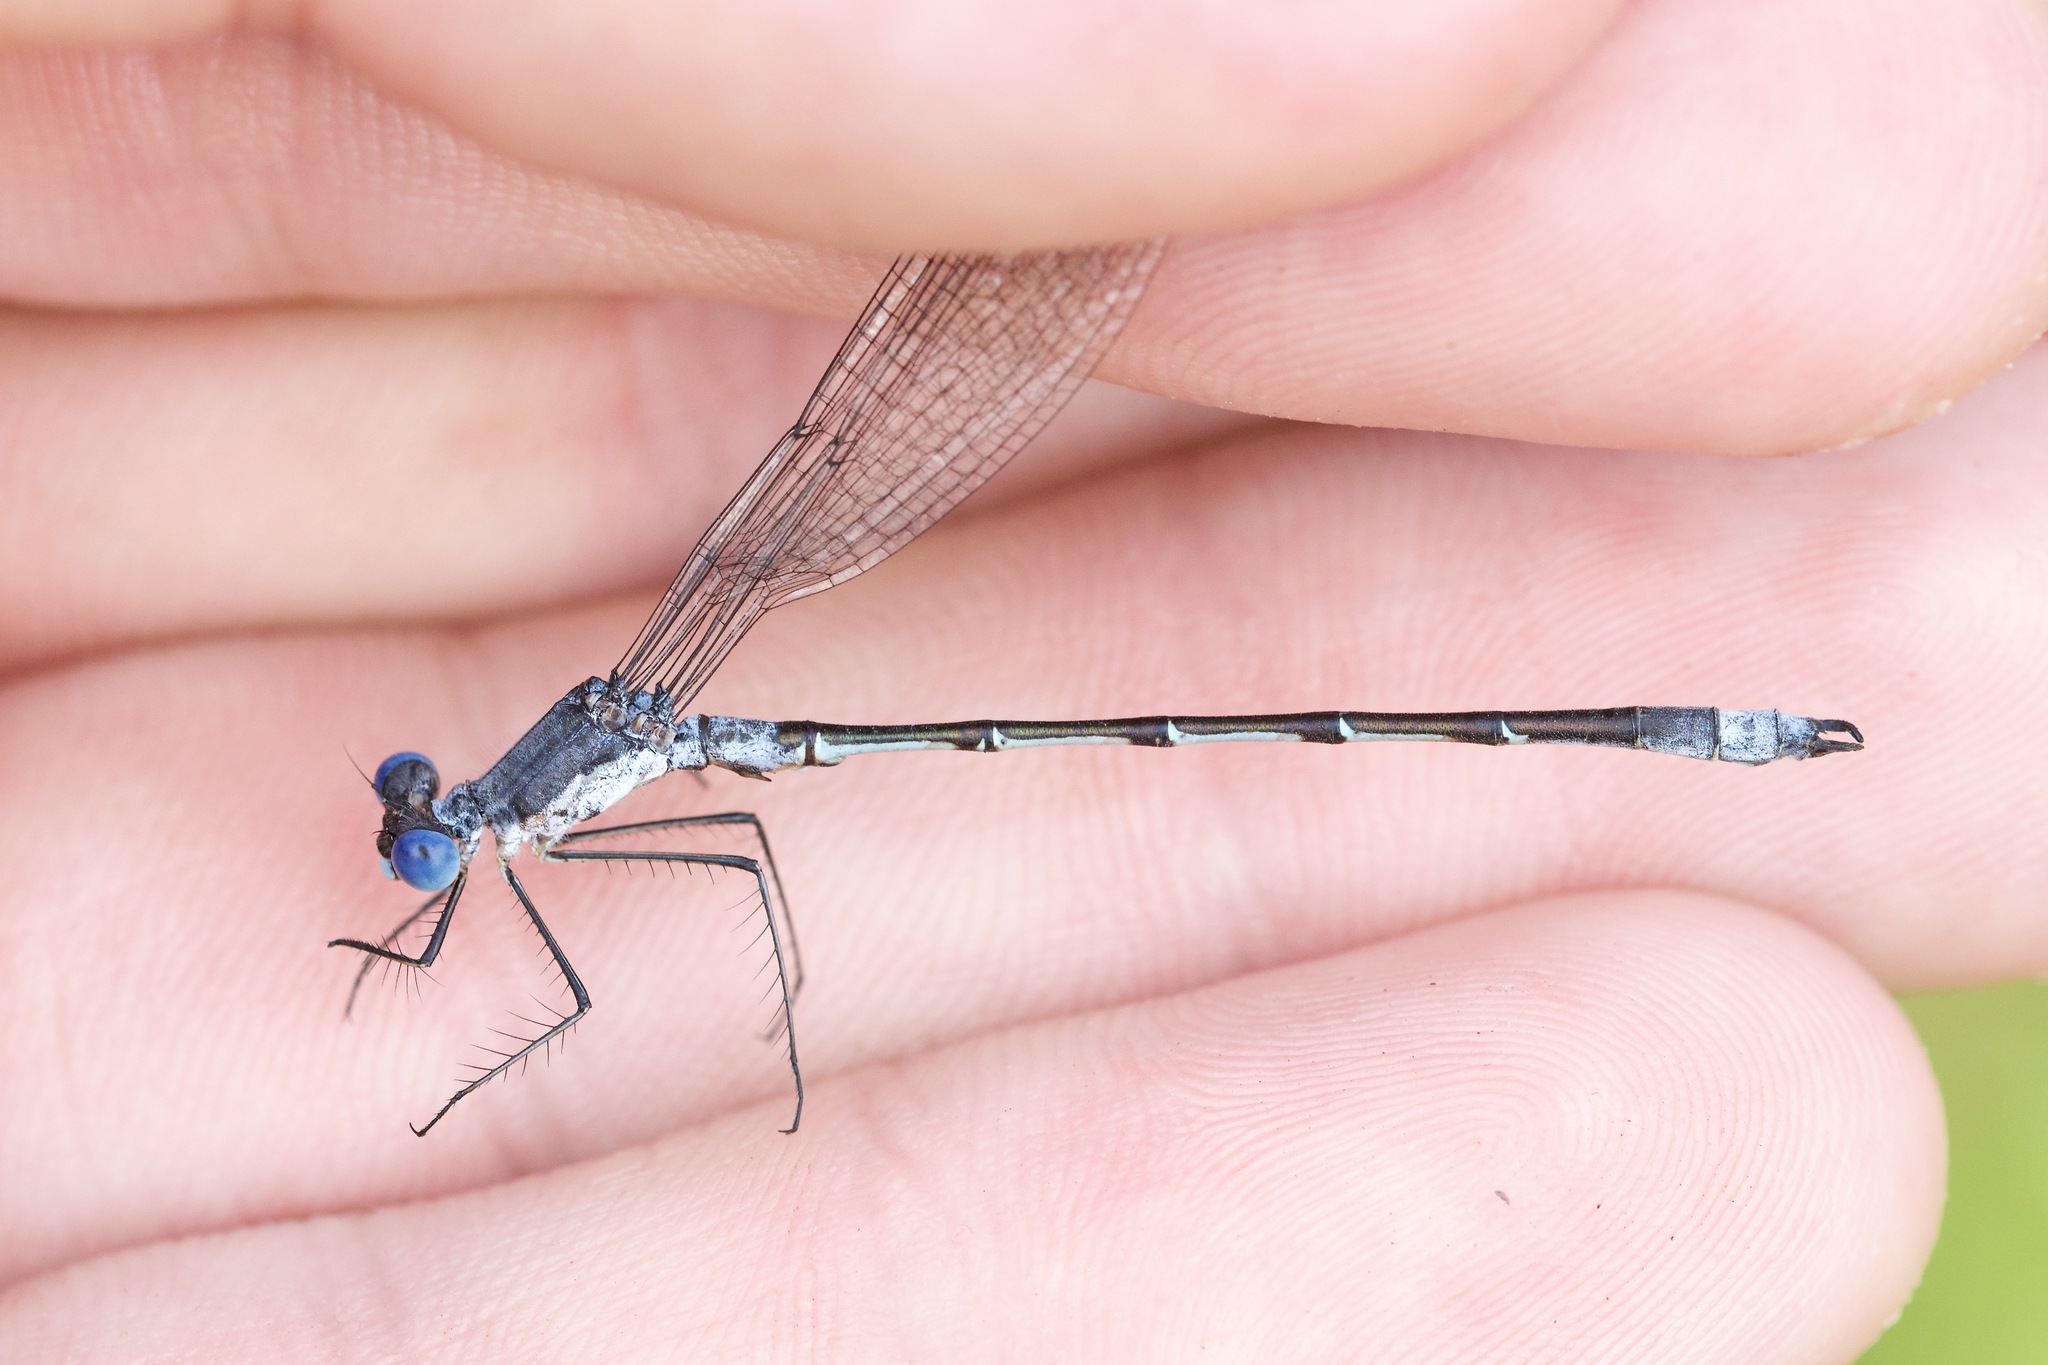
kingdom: Animalia
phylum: Arthropoda
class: Insecta
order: Odonata
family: Lestidae
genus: Lestes
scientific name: Lestes forcipatus
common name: Sweetflag spreadwing
